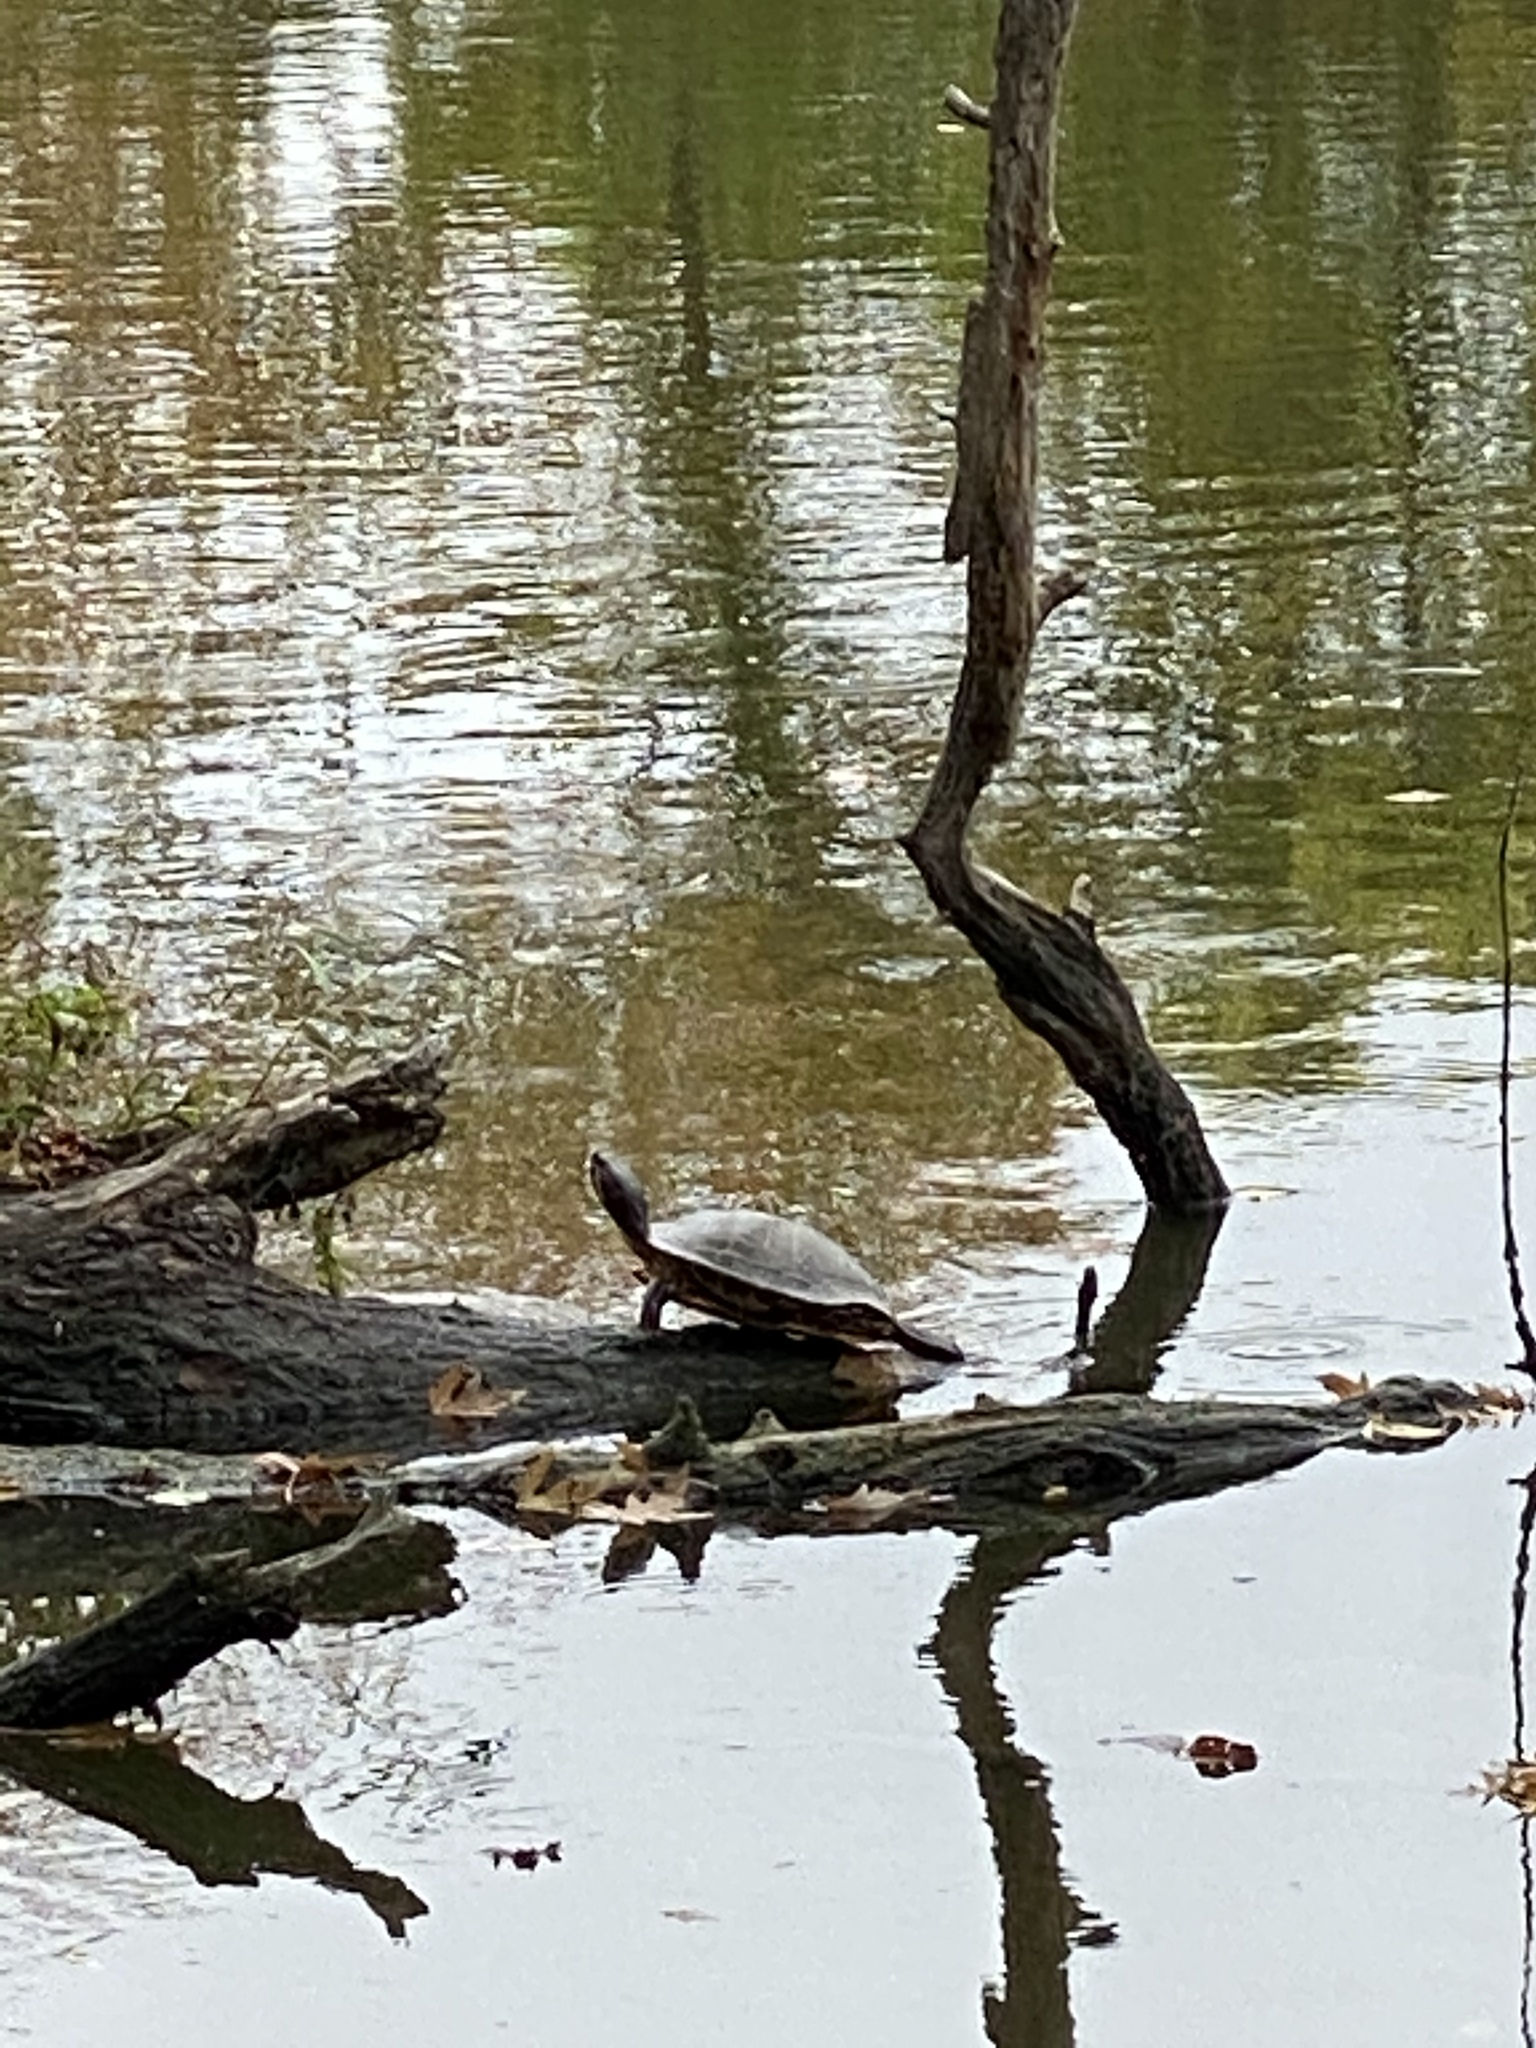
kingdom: Animalia
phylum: Chordata
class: Testudines
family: Emydidae
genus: Trachemys
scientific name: Trachemys scripta
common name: Slider
